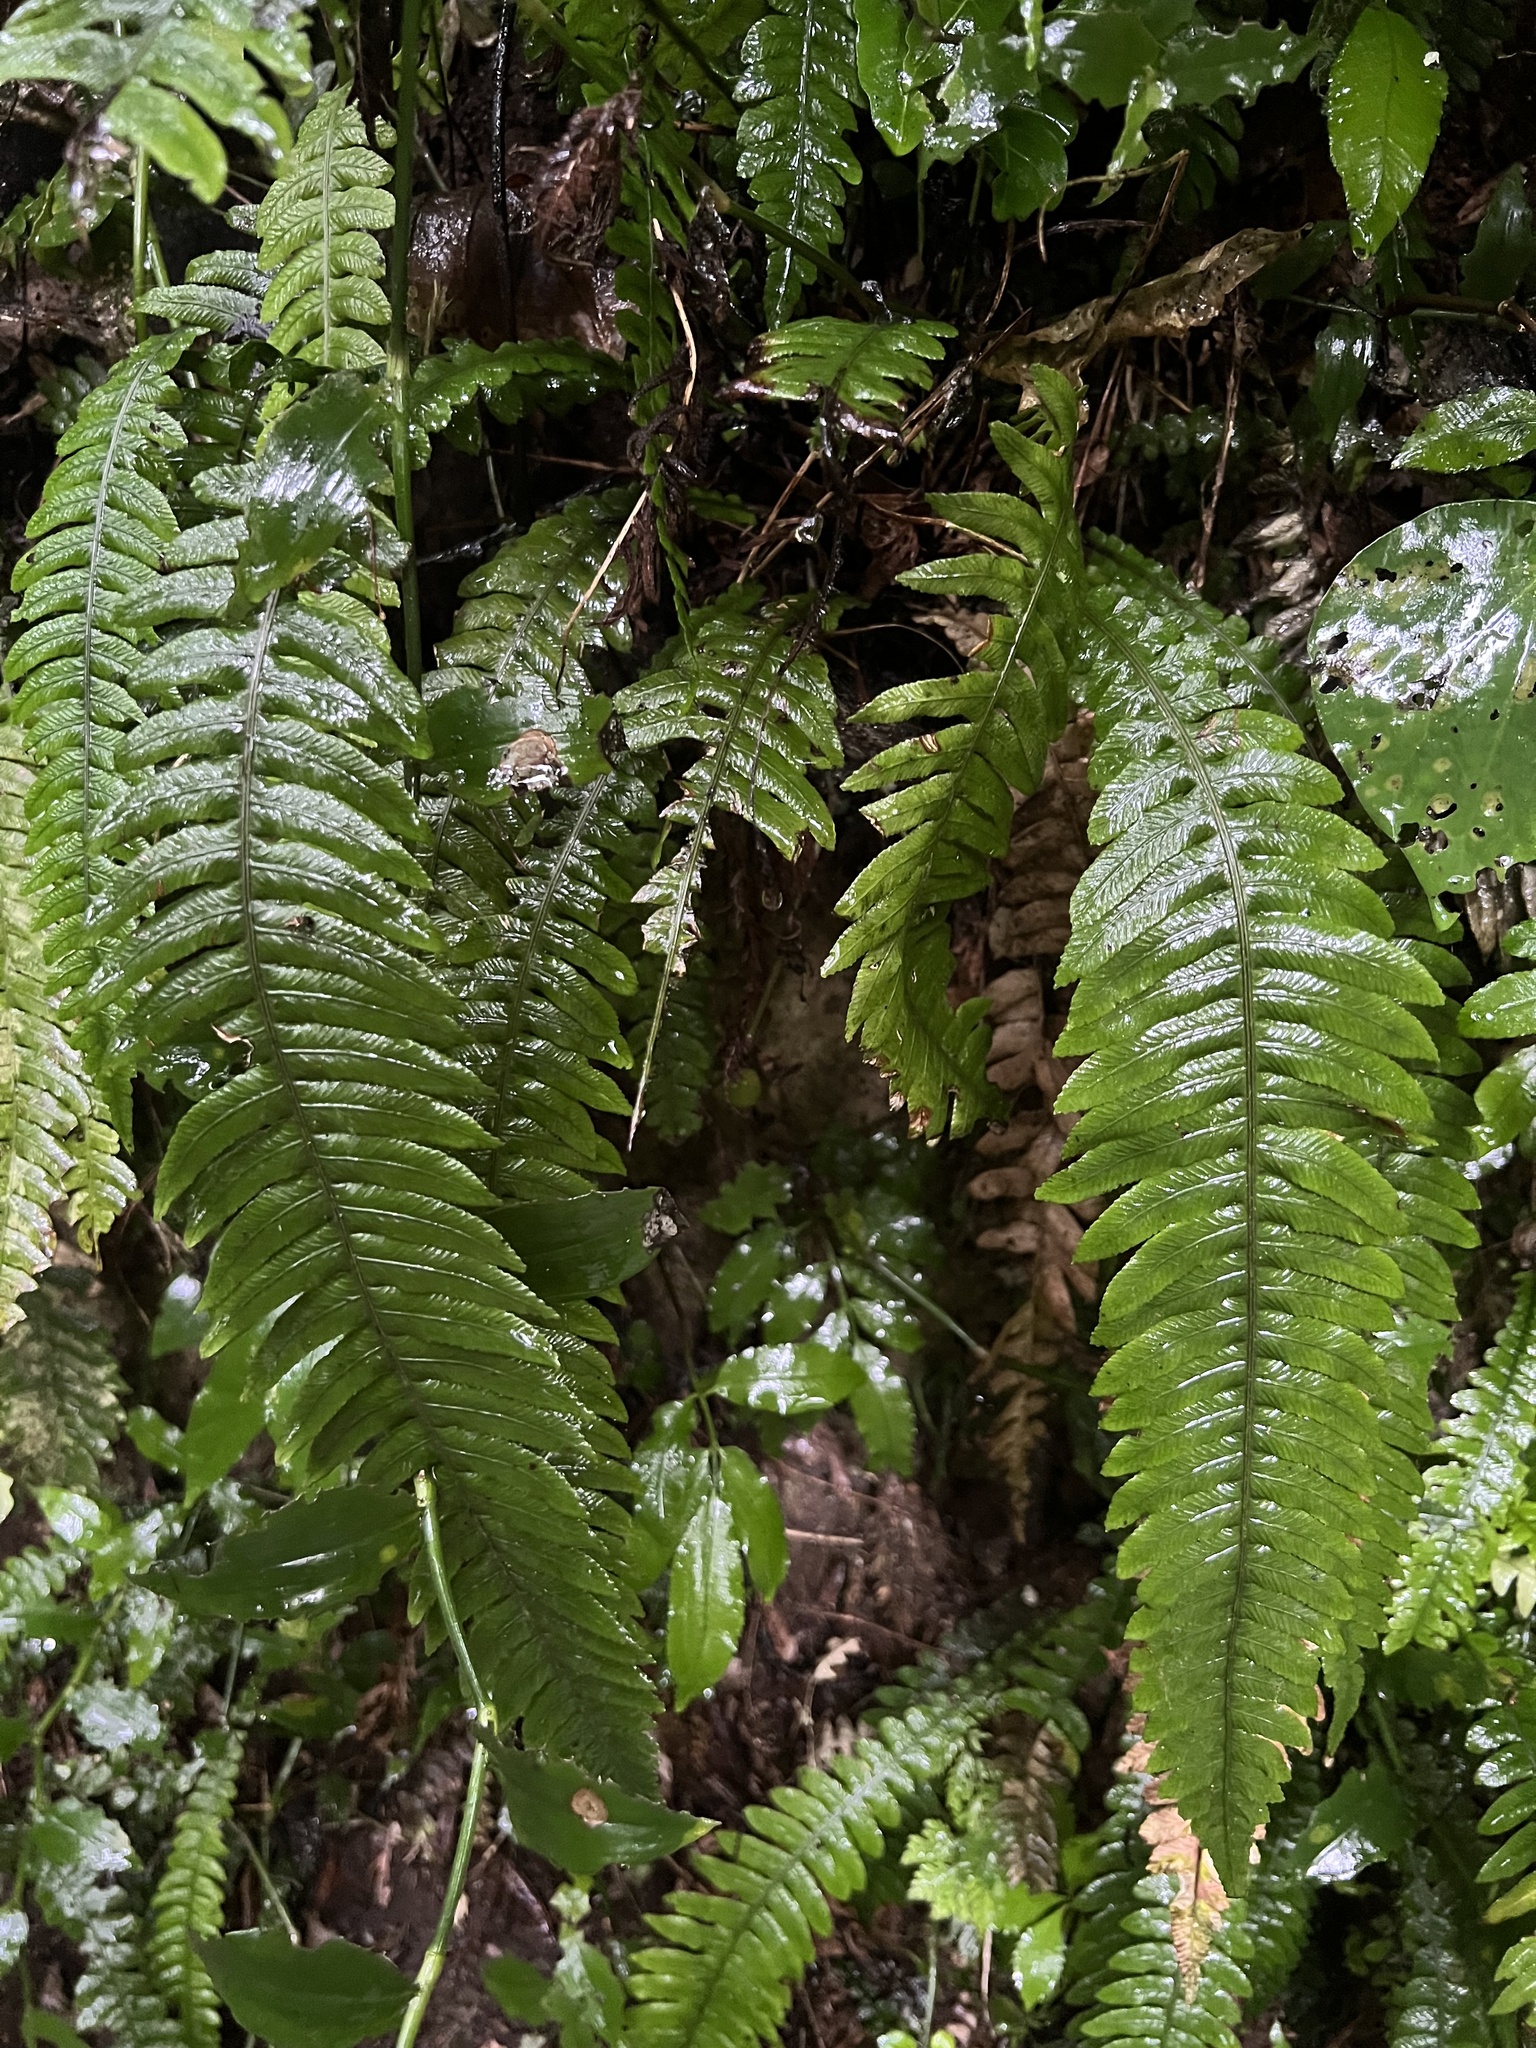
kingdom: Plantae
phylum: Tracheophyta
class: Polypodiopsida
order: Polypodiales
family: Blechnaceae
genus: Austroblechnum
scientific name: Austroblechnum lanceolatum
